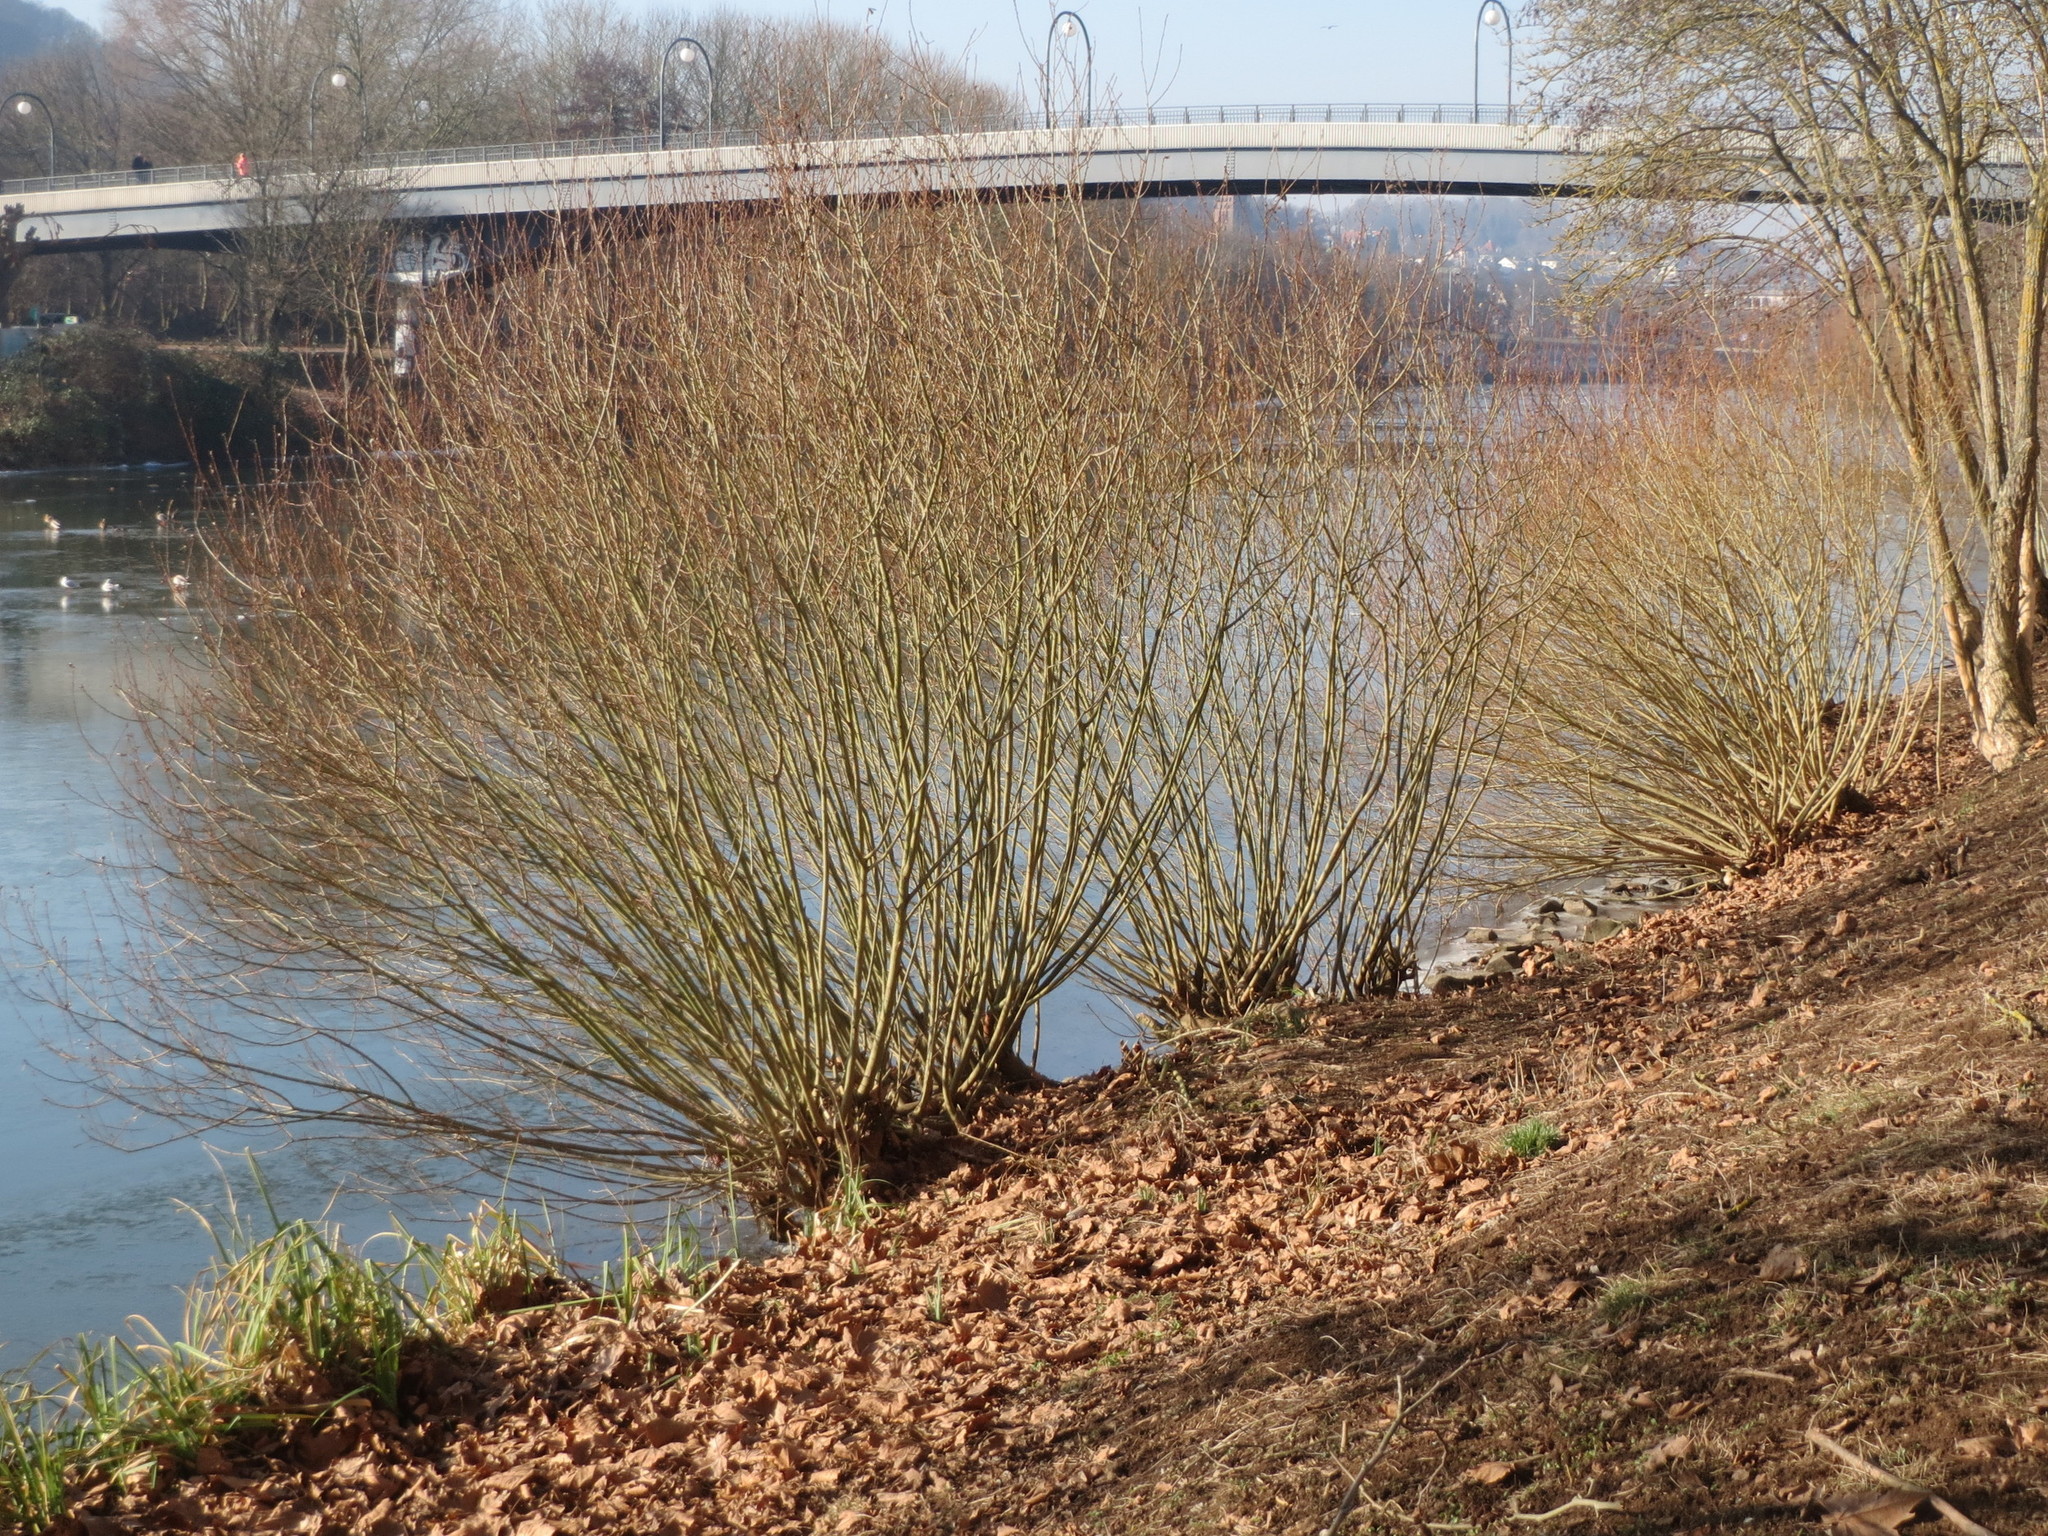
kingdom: Plantae
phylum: Tracheophyta
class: Magnoliopsida
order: Malpighiales
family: Salicaceae
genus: Salix
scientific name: Salix alba
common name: White willow
